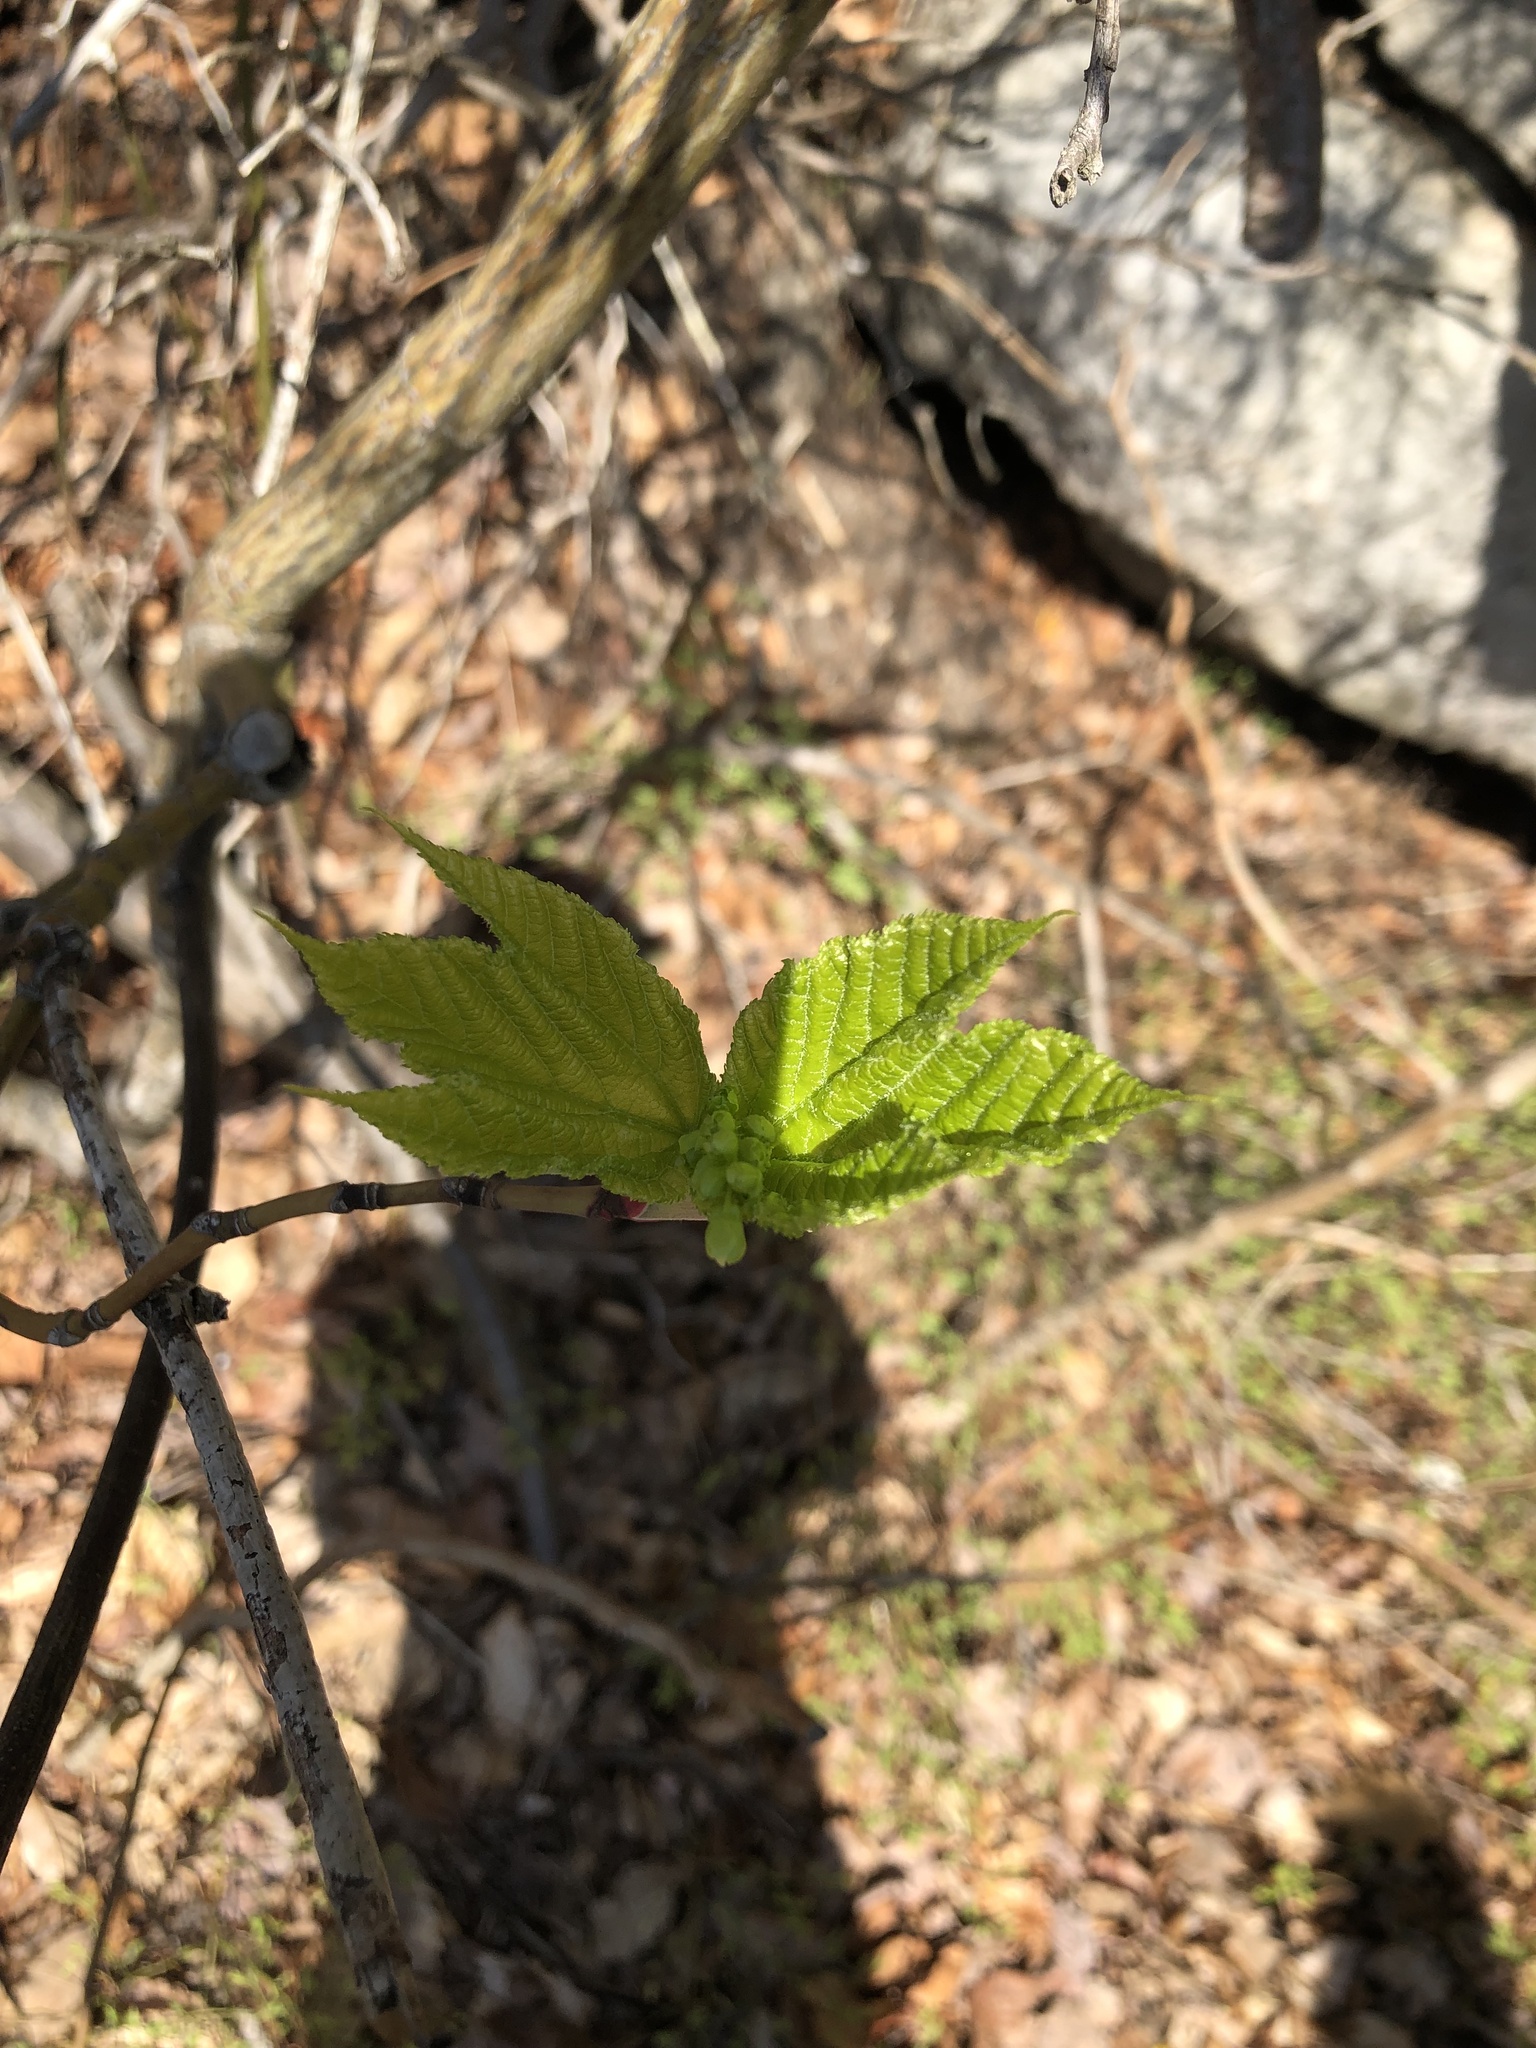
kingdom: Plantae
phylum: Tracheophyta
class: Magnoliopsida
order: Sapindales
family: Sapindaceae
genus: Acer
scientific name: Acer pensylvanicum
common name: Moosewood
